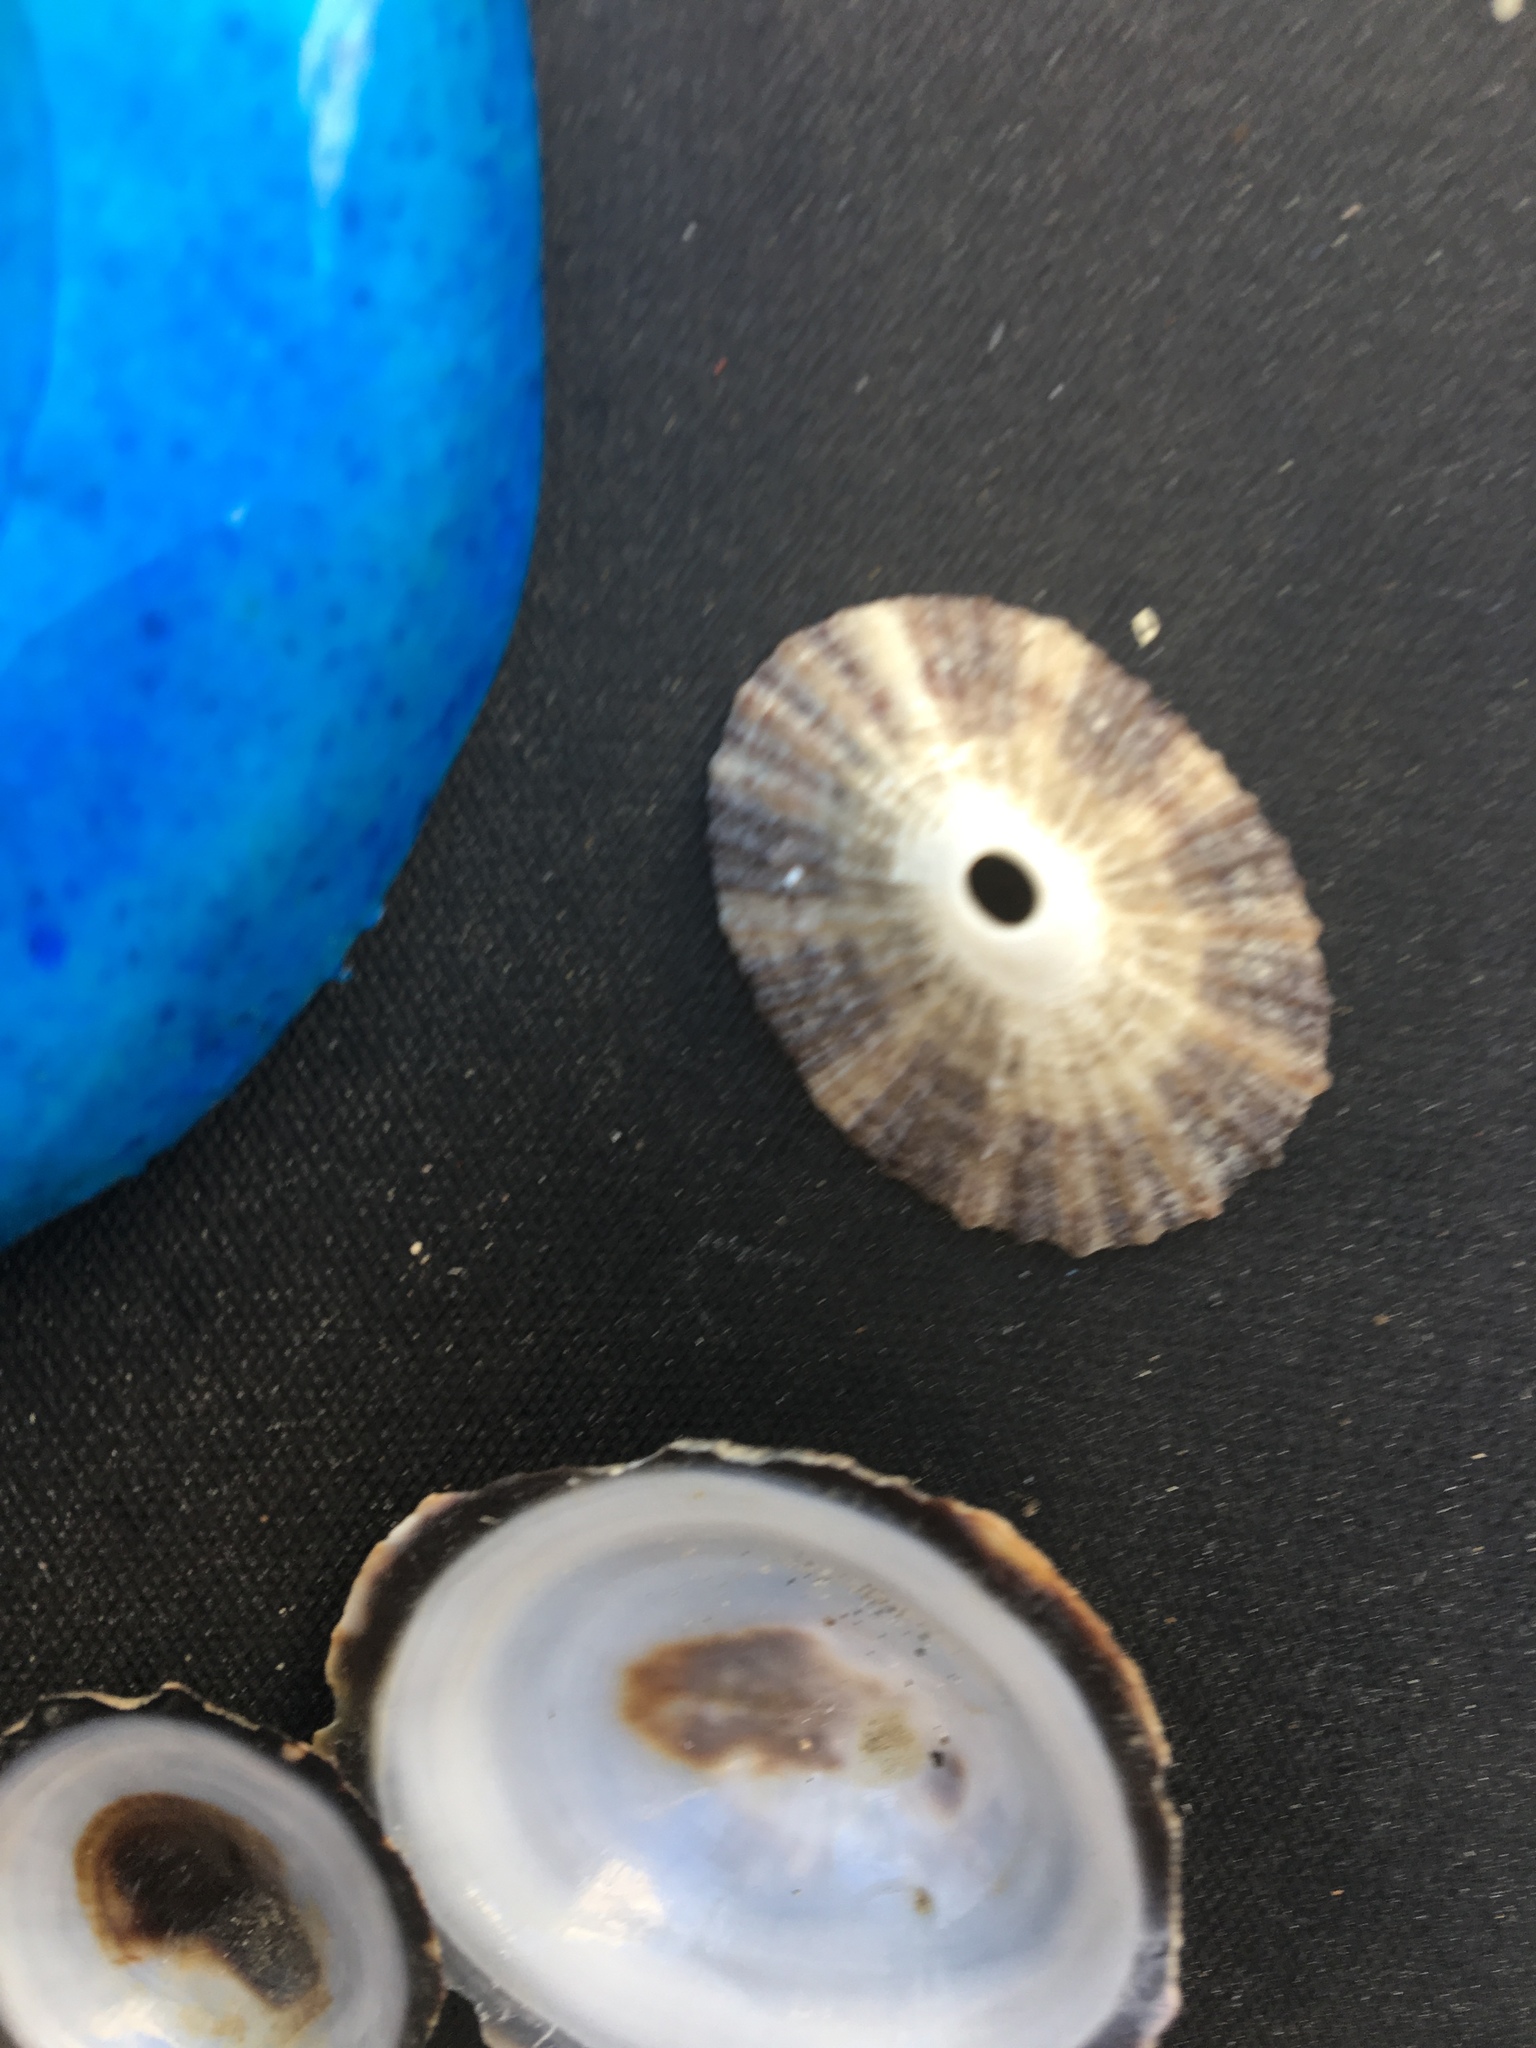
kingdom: Animalia
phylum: Mollusca
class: Gastropoda
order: Lepetellida
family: Fissurellidae
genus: Diodora
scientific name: Diodora aspera
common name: Rough keyhole limpet
